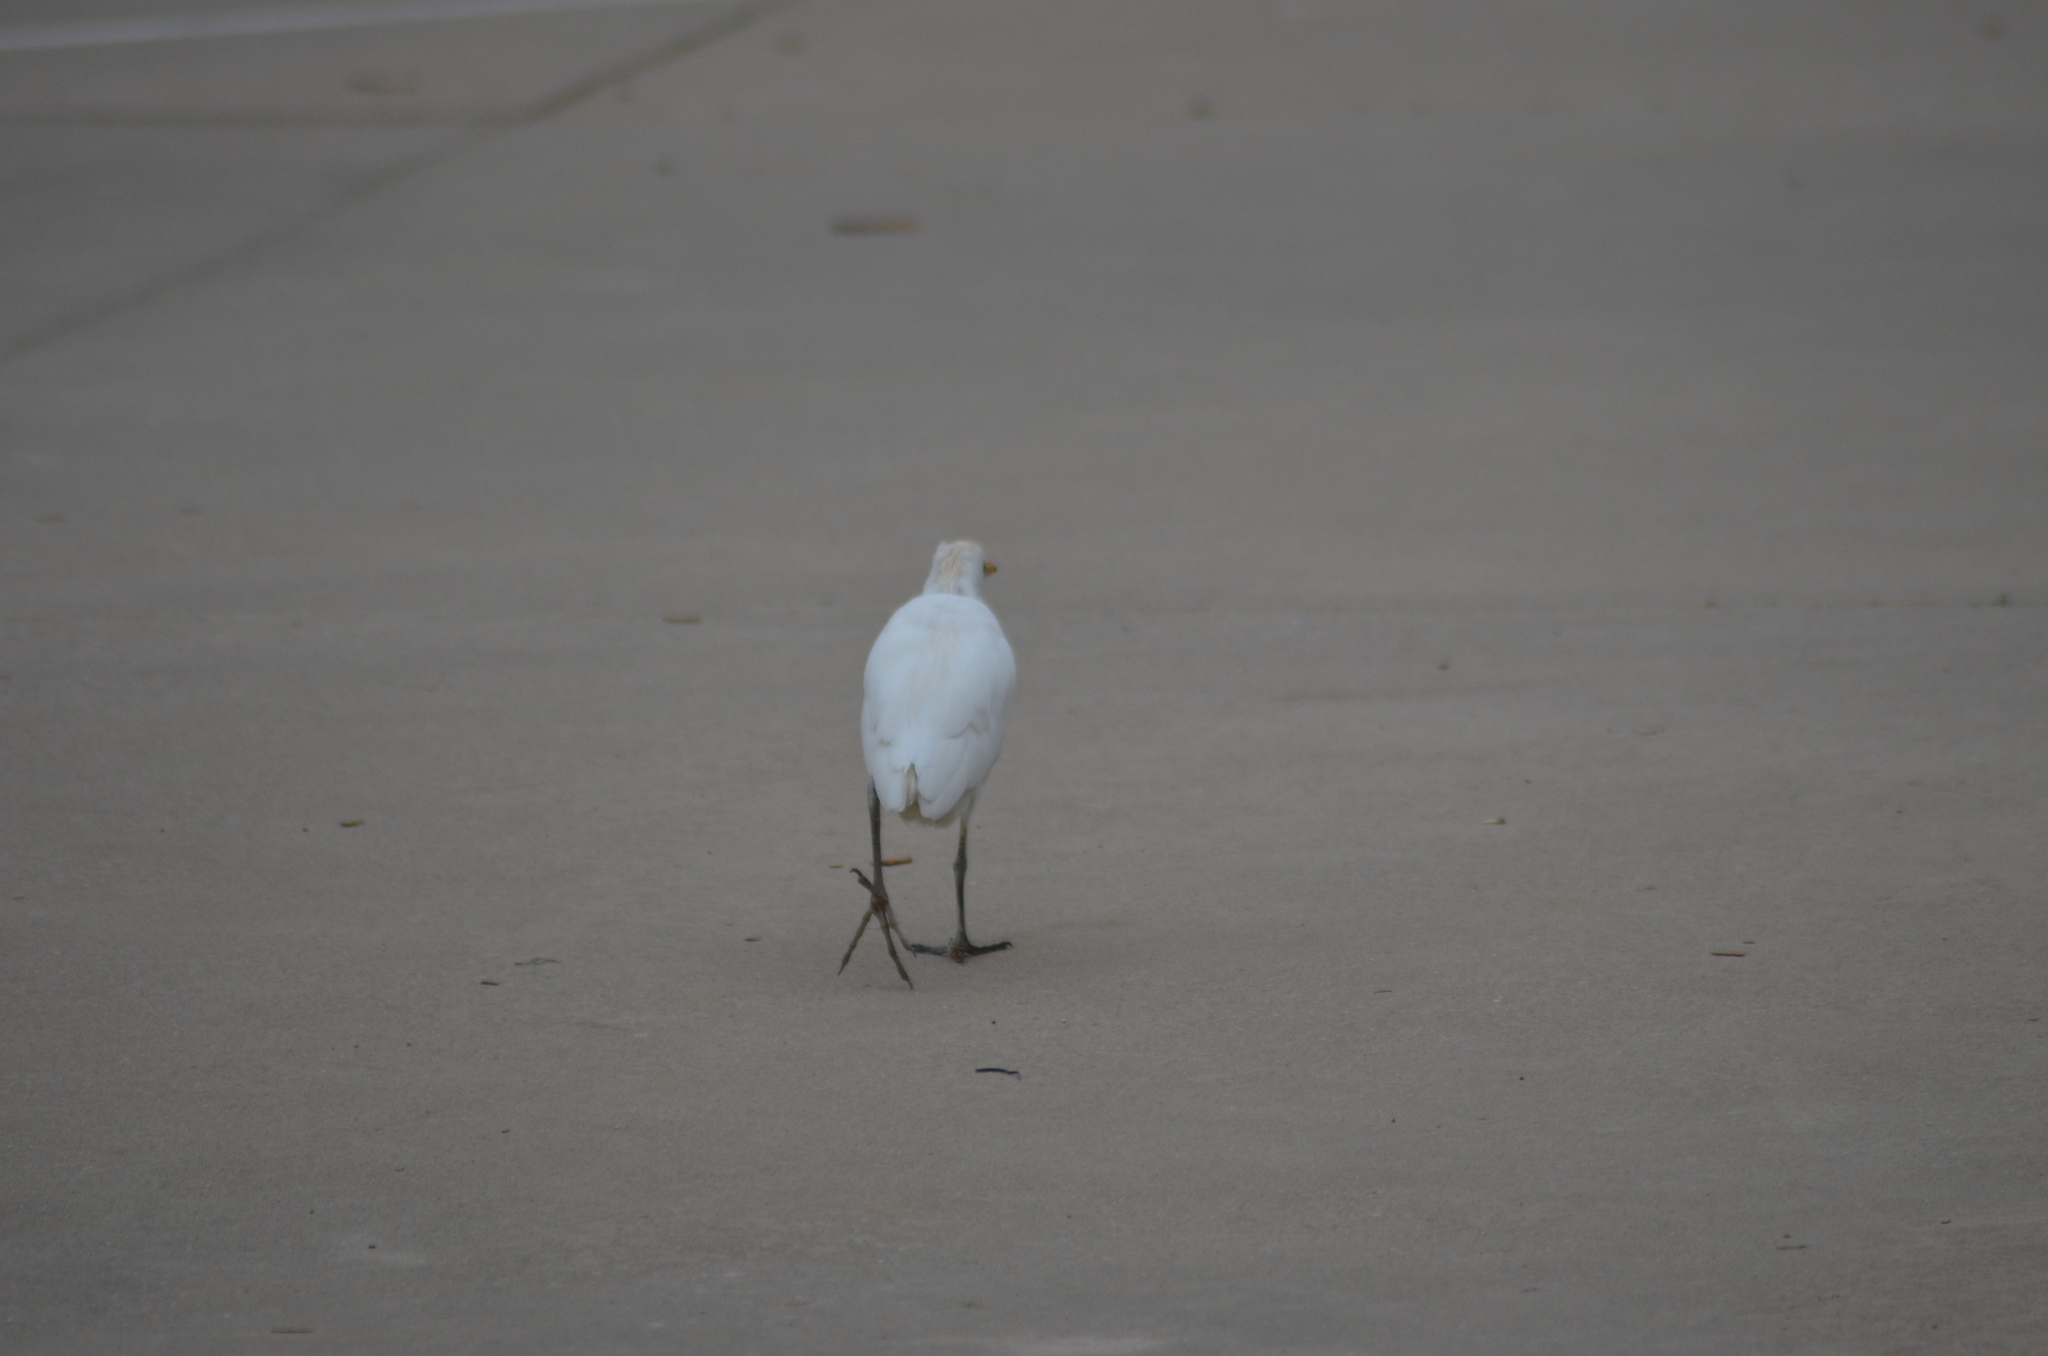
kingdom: Animalia
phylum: Chordata
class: Aves
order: Pelecaniformes
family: Ardeidae
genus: Bubulcus
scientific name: Bubulcus ibis
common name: Cattle egret
